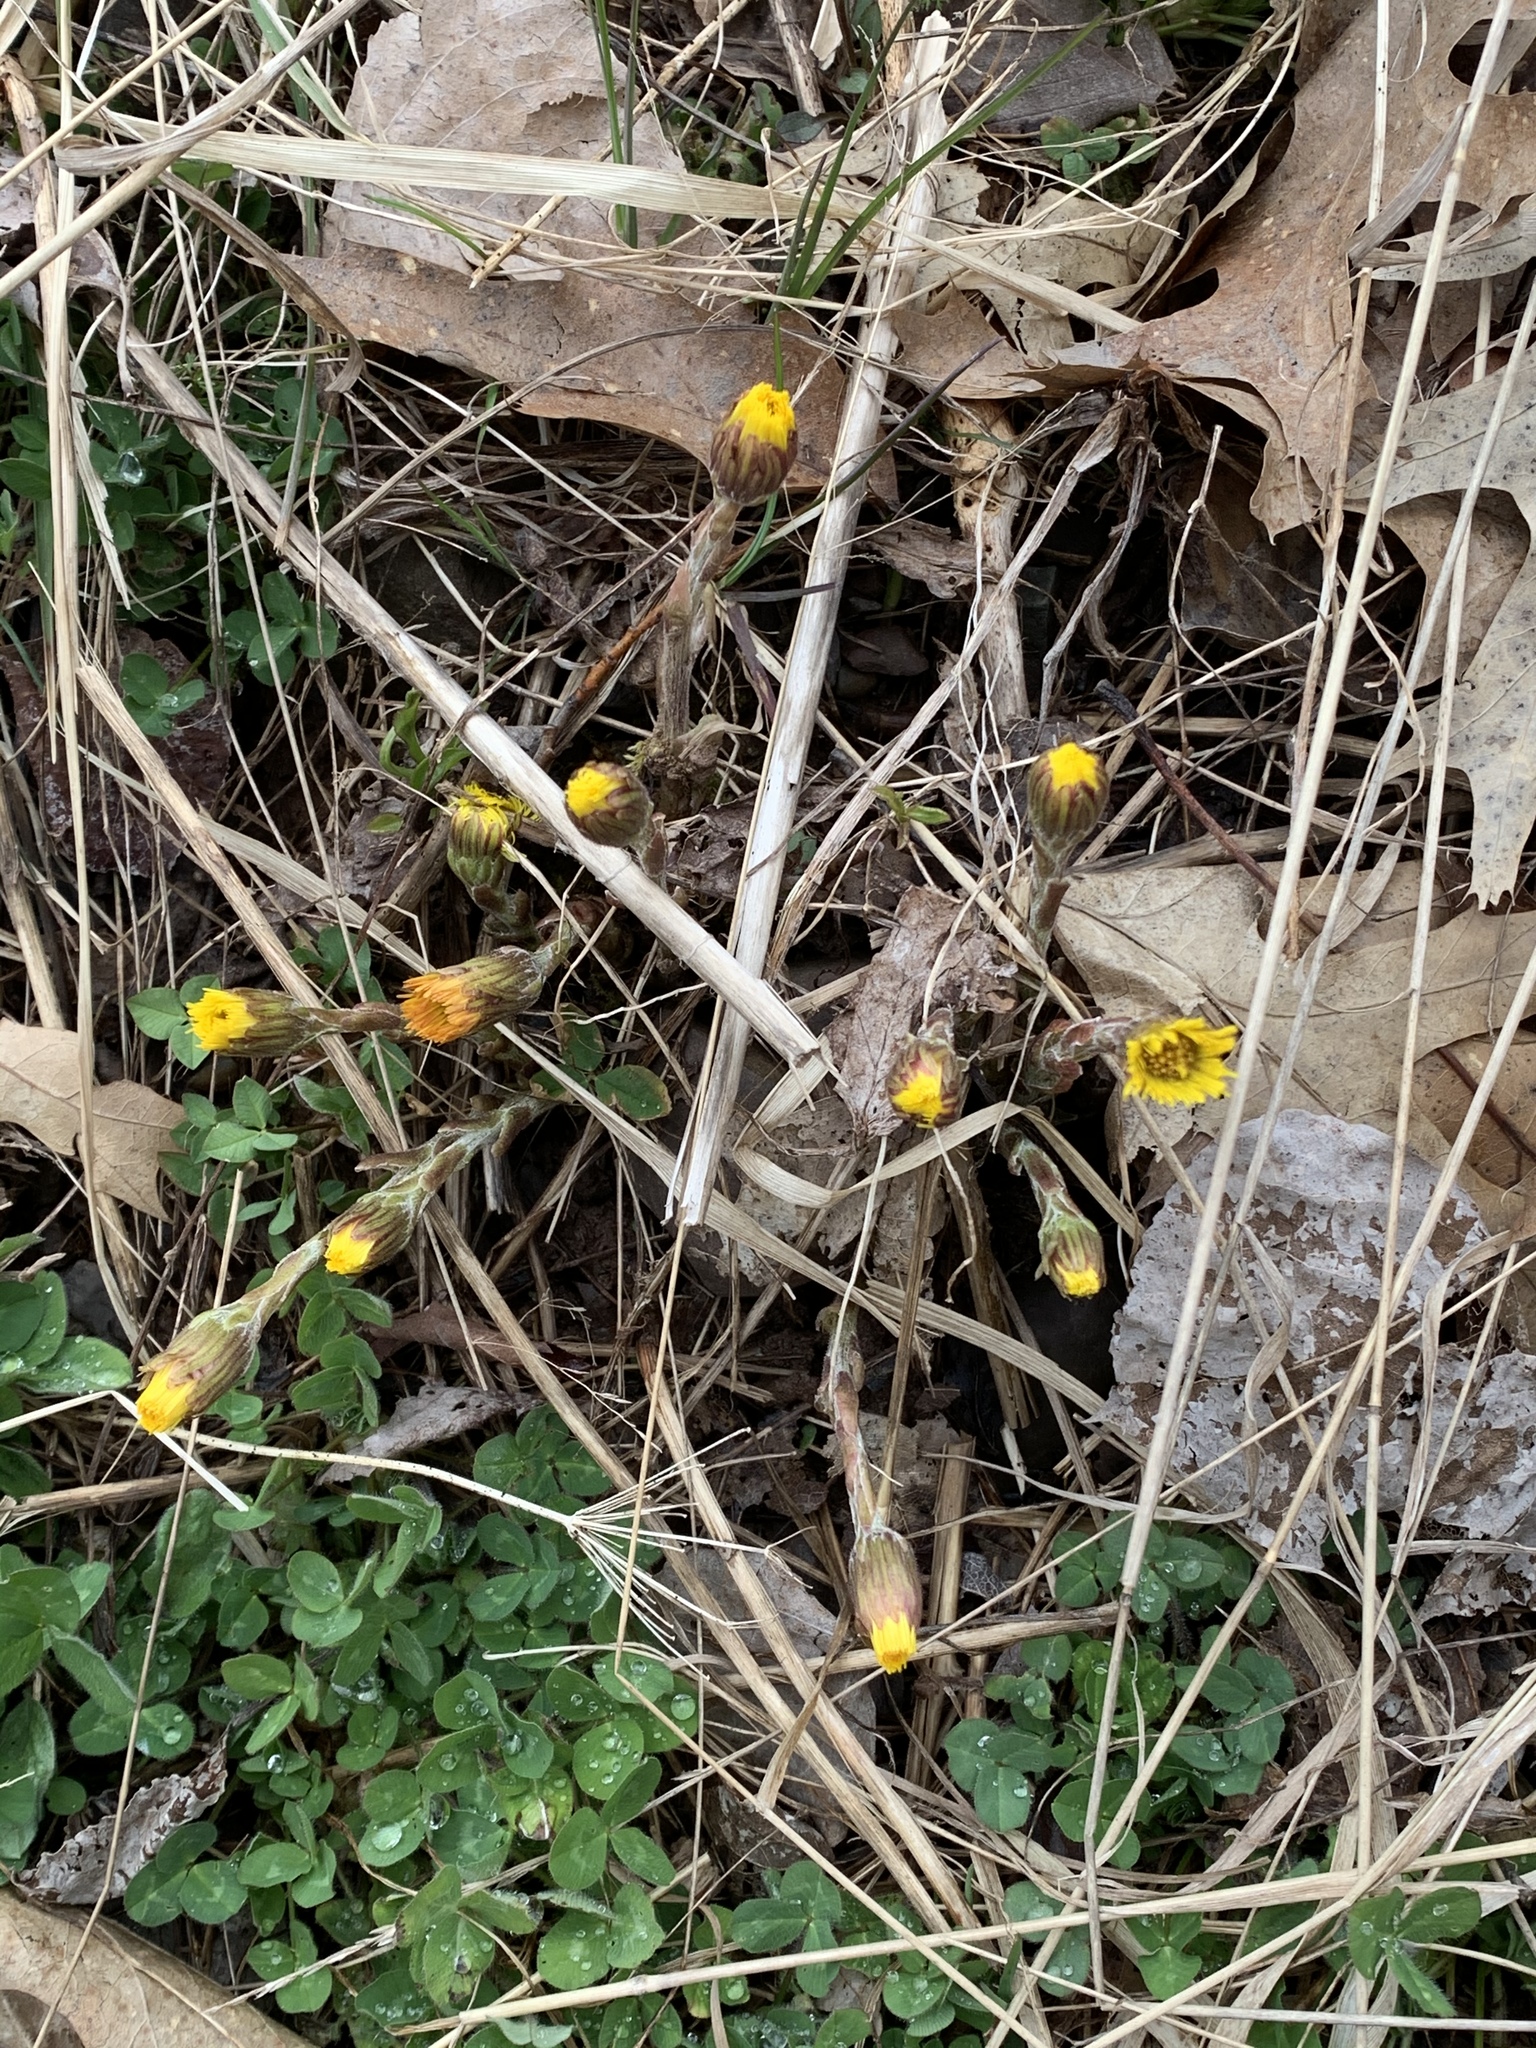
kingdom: Plantae
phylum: Tracheophyta
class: Magnoliopsida
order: Asterales
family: Asteraceae
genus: Tussilago
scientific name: Tussilago farfara
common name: Coltsfoot
